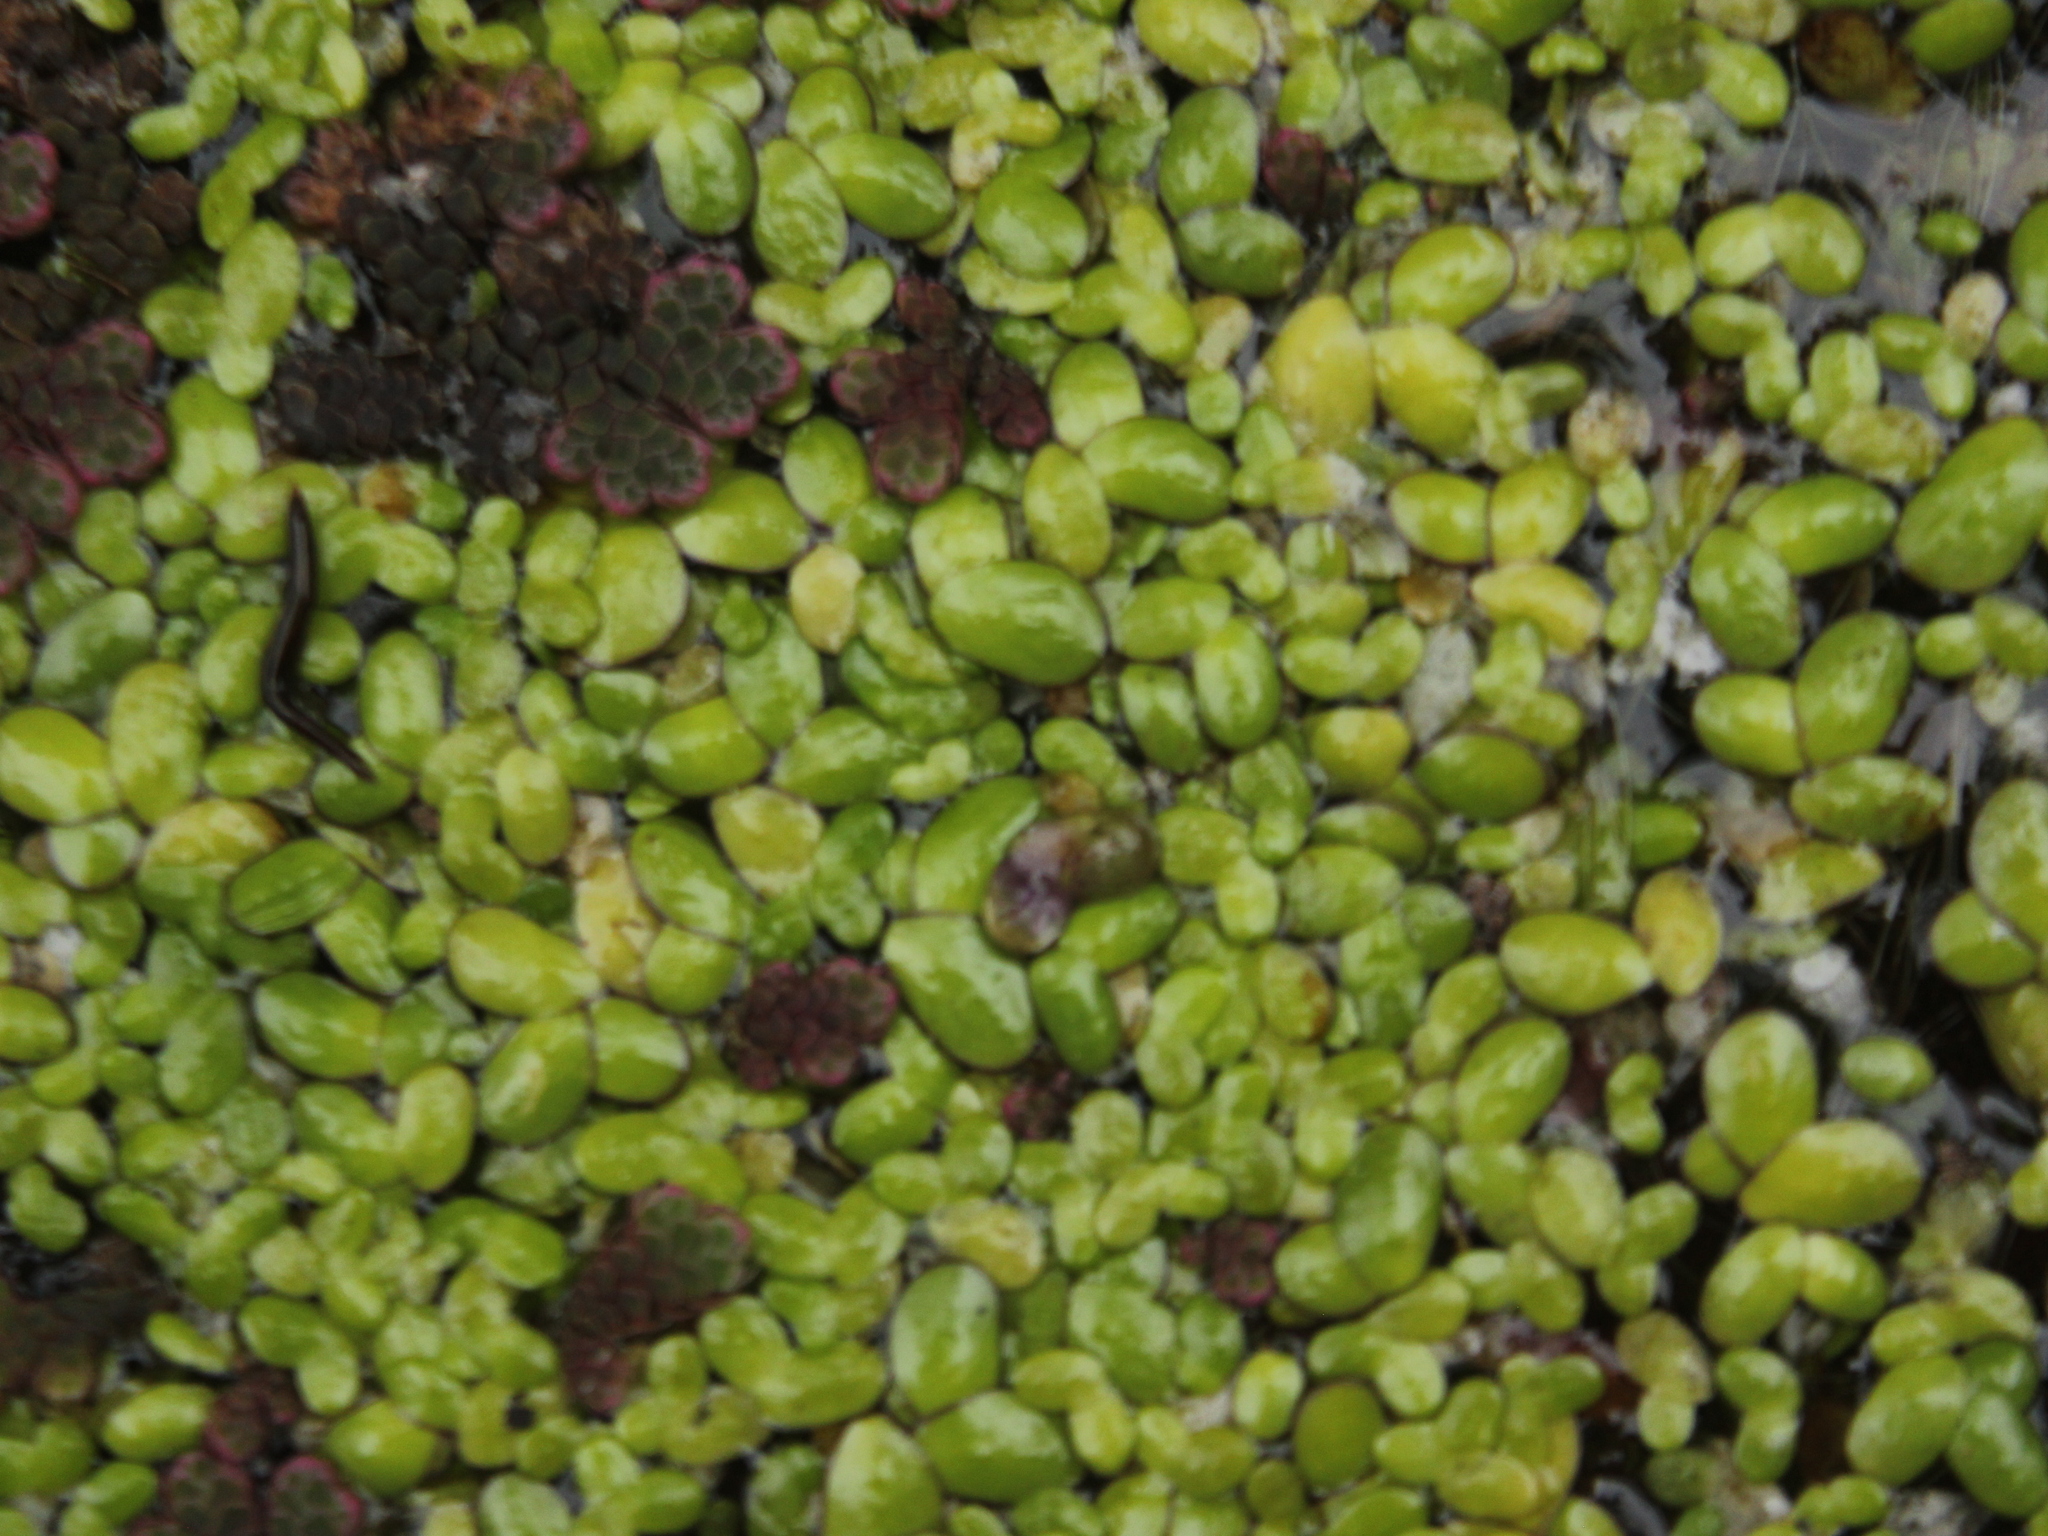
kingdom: Plantae
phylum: Tracheophyta
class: Liliopsida
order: Alismatales
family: Araceae
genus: Spirodela
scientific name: Spirodela punctata
